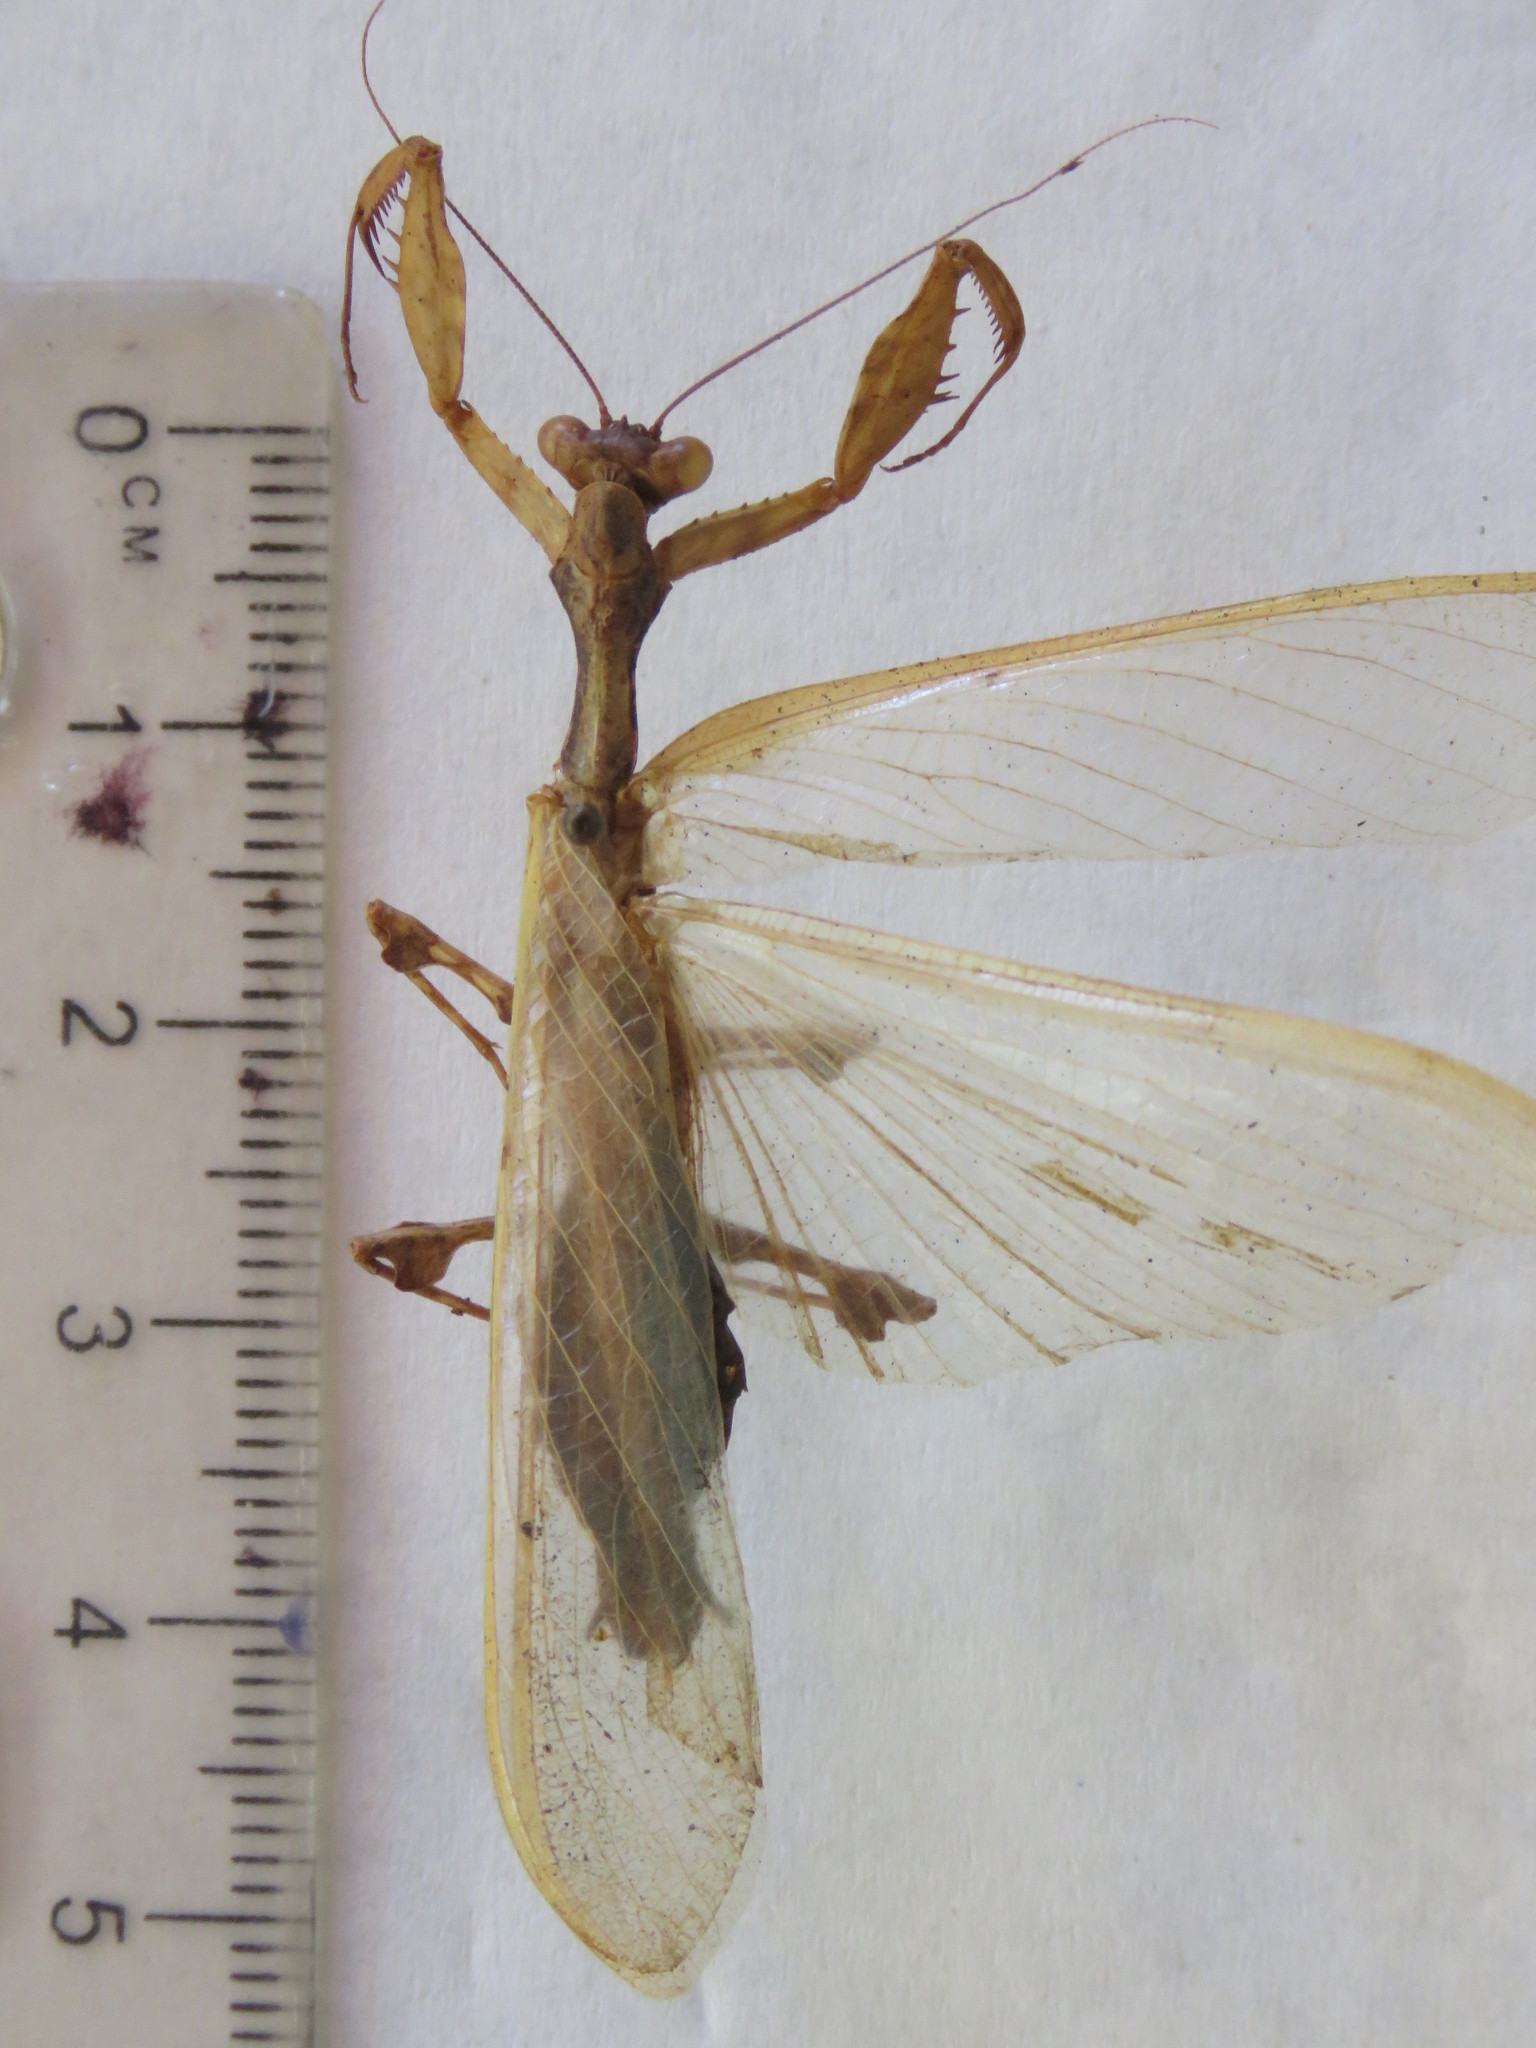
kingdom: Animalia
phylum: Arthropoda
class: Insecta
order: Mantodea
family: Mantidae
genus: Antemna
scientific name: Antemna rapax
